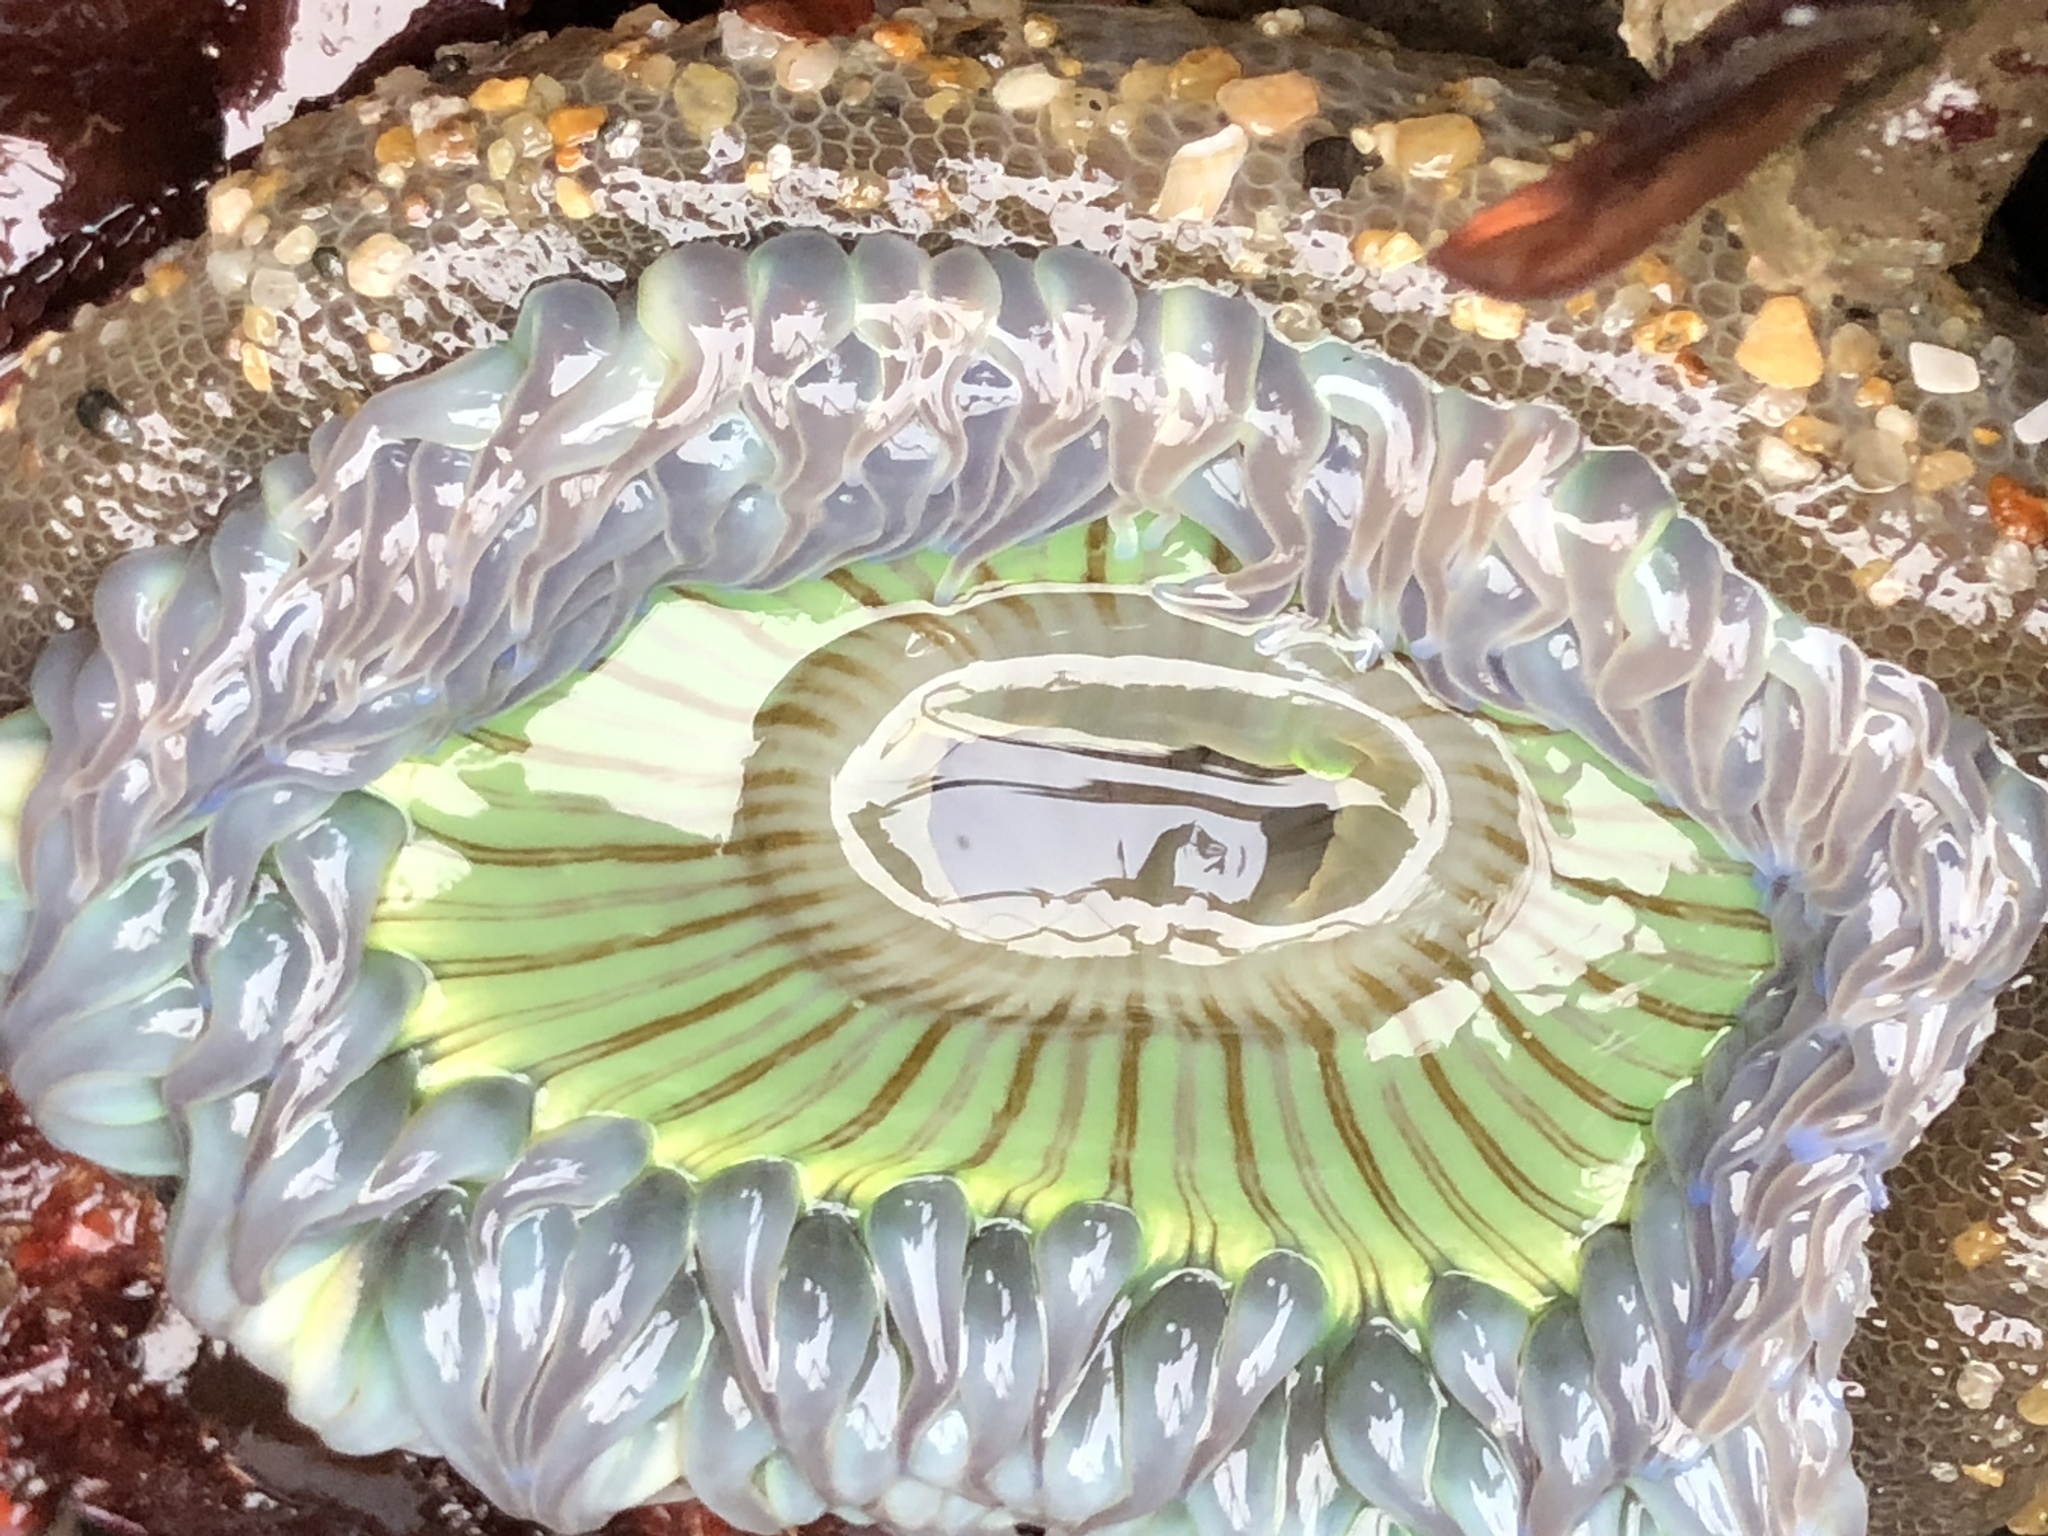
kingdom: Animalia
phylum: Cnidaria
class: Anthozoa
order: Actiniaria
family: Actiniidae
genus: Anthopleura
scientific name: Anthopleura sola
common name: Sun anemone
